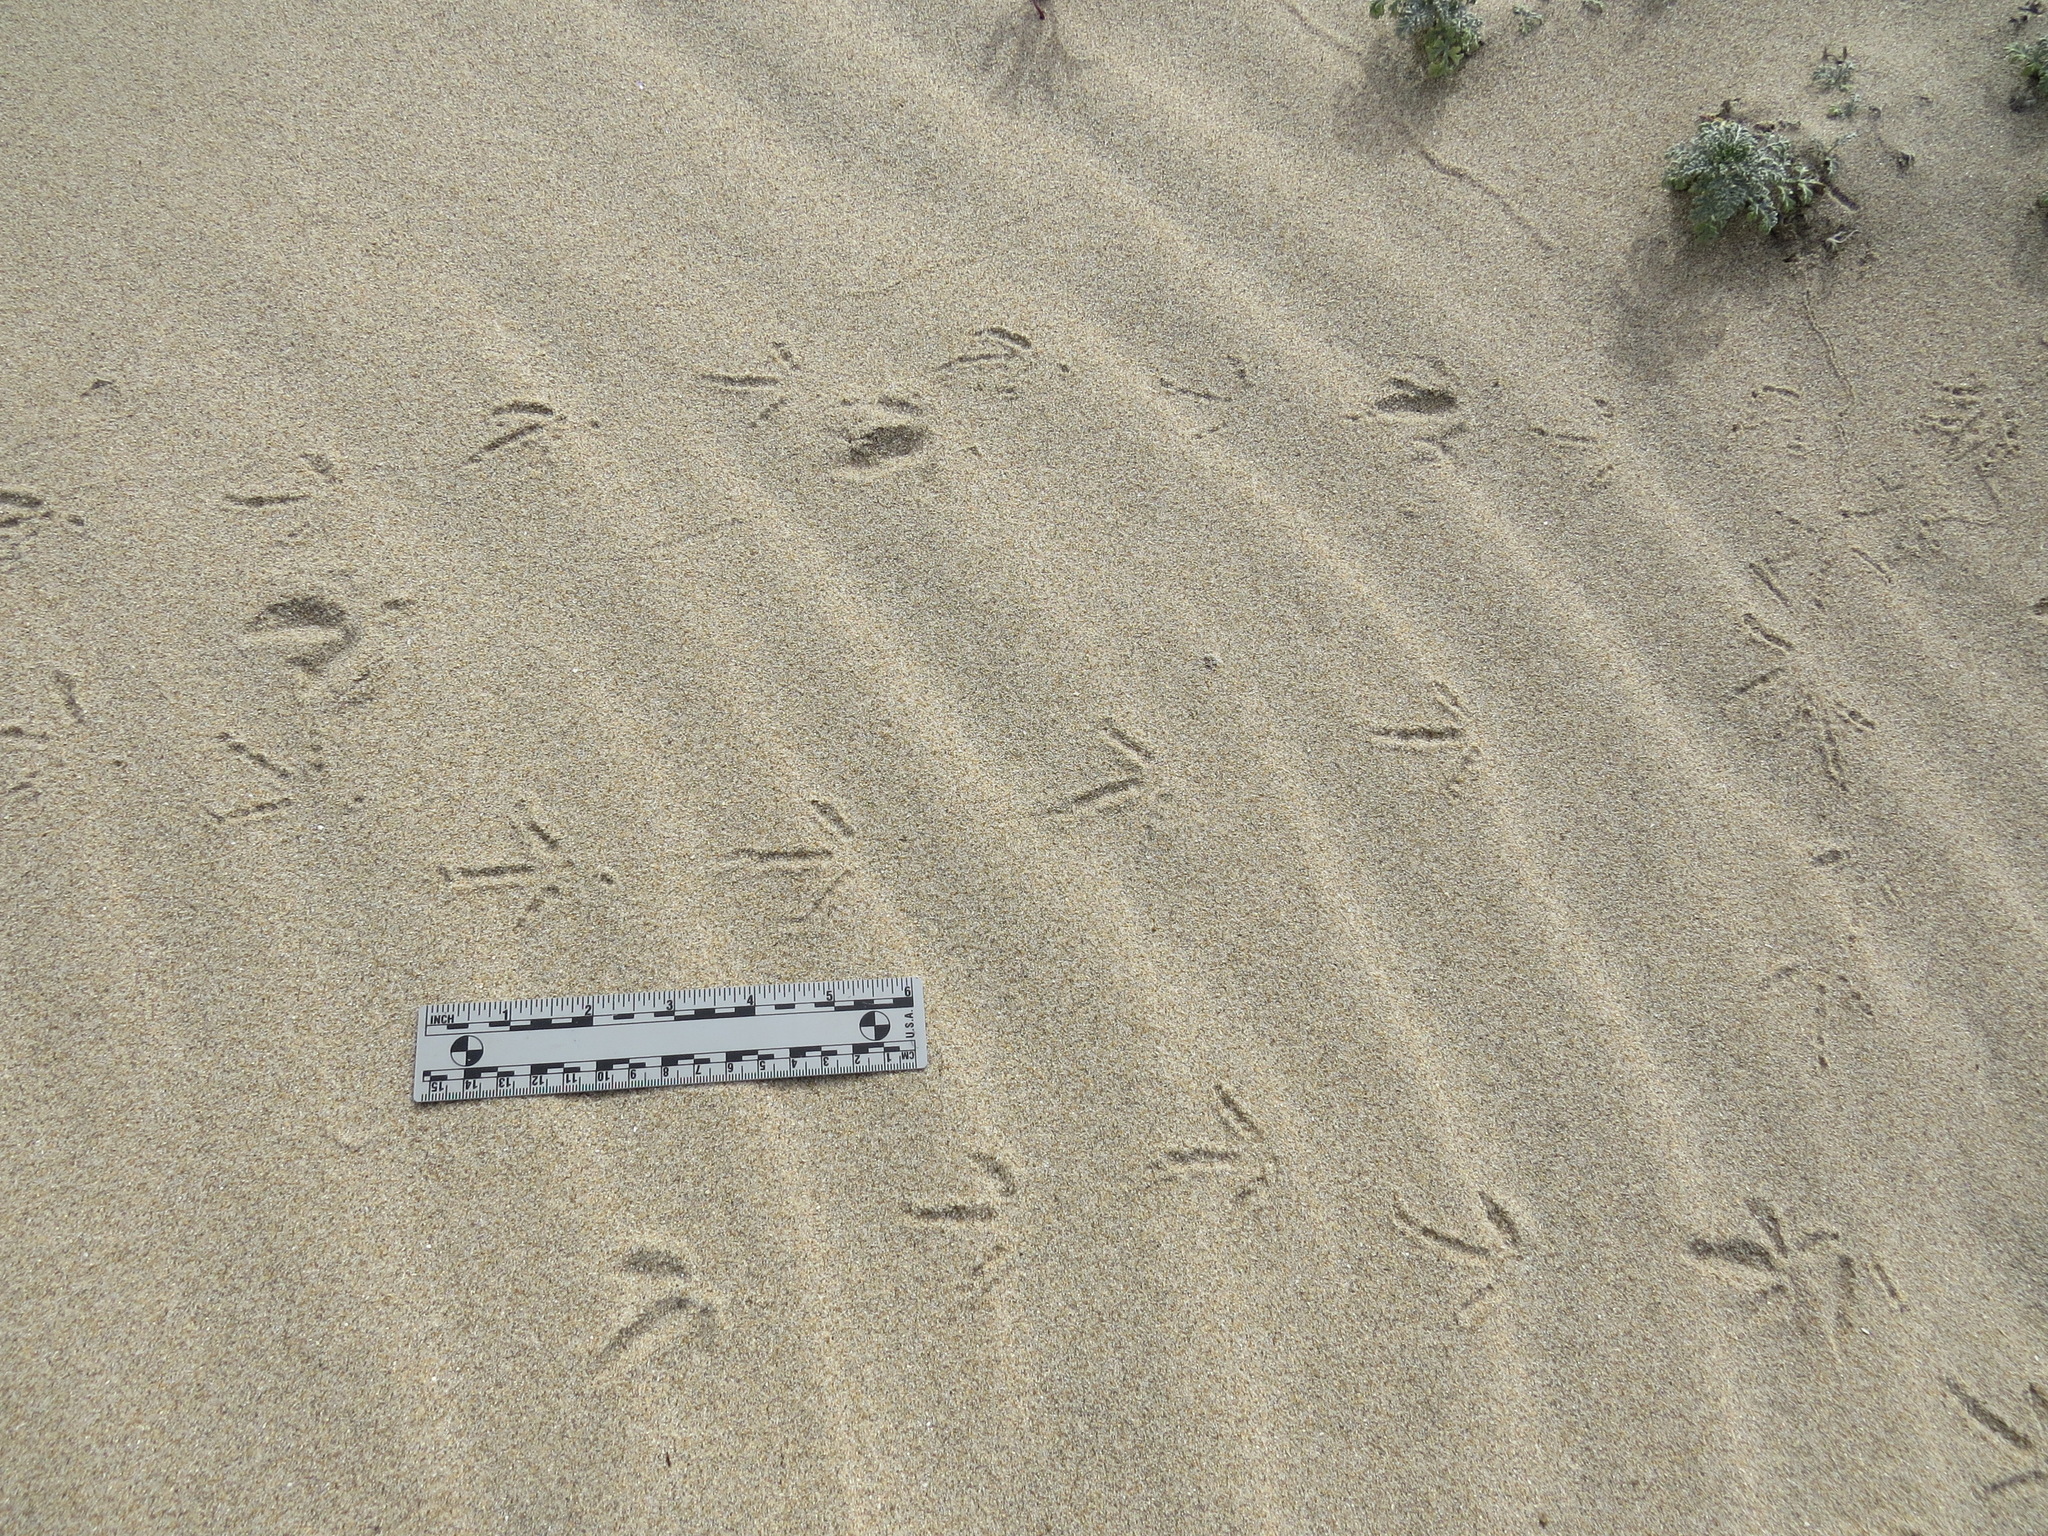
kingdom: Animalia
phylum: Chordata
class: Aves
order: Galliformes
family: Odontophoridae
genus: Callipepla
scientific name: Callipepla californica
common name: California quail
